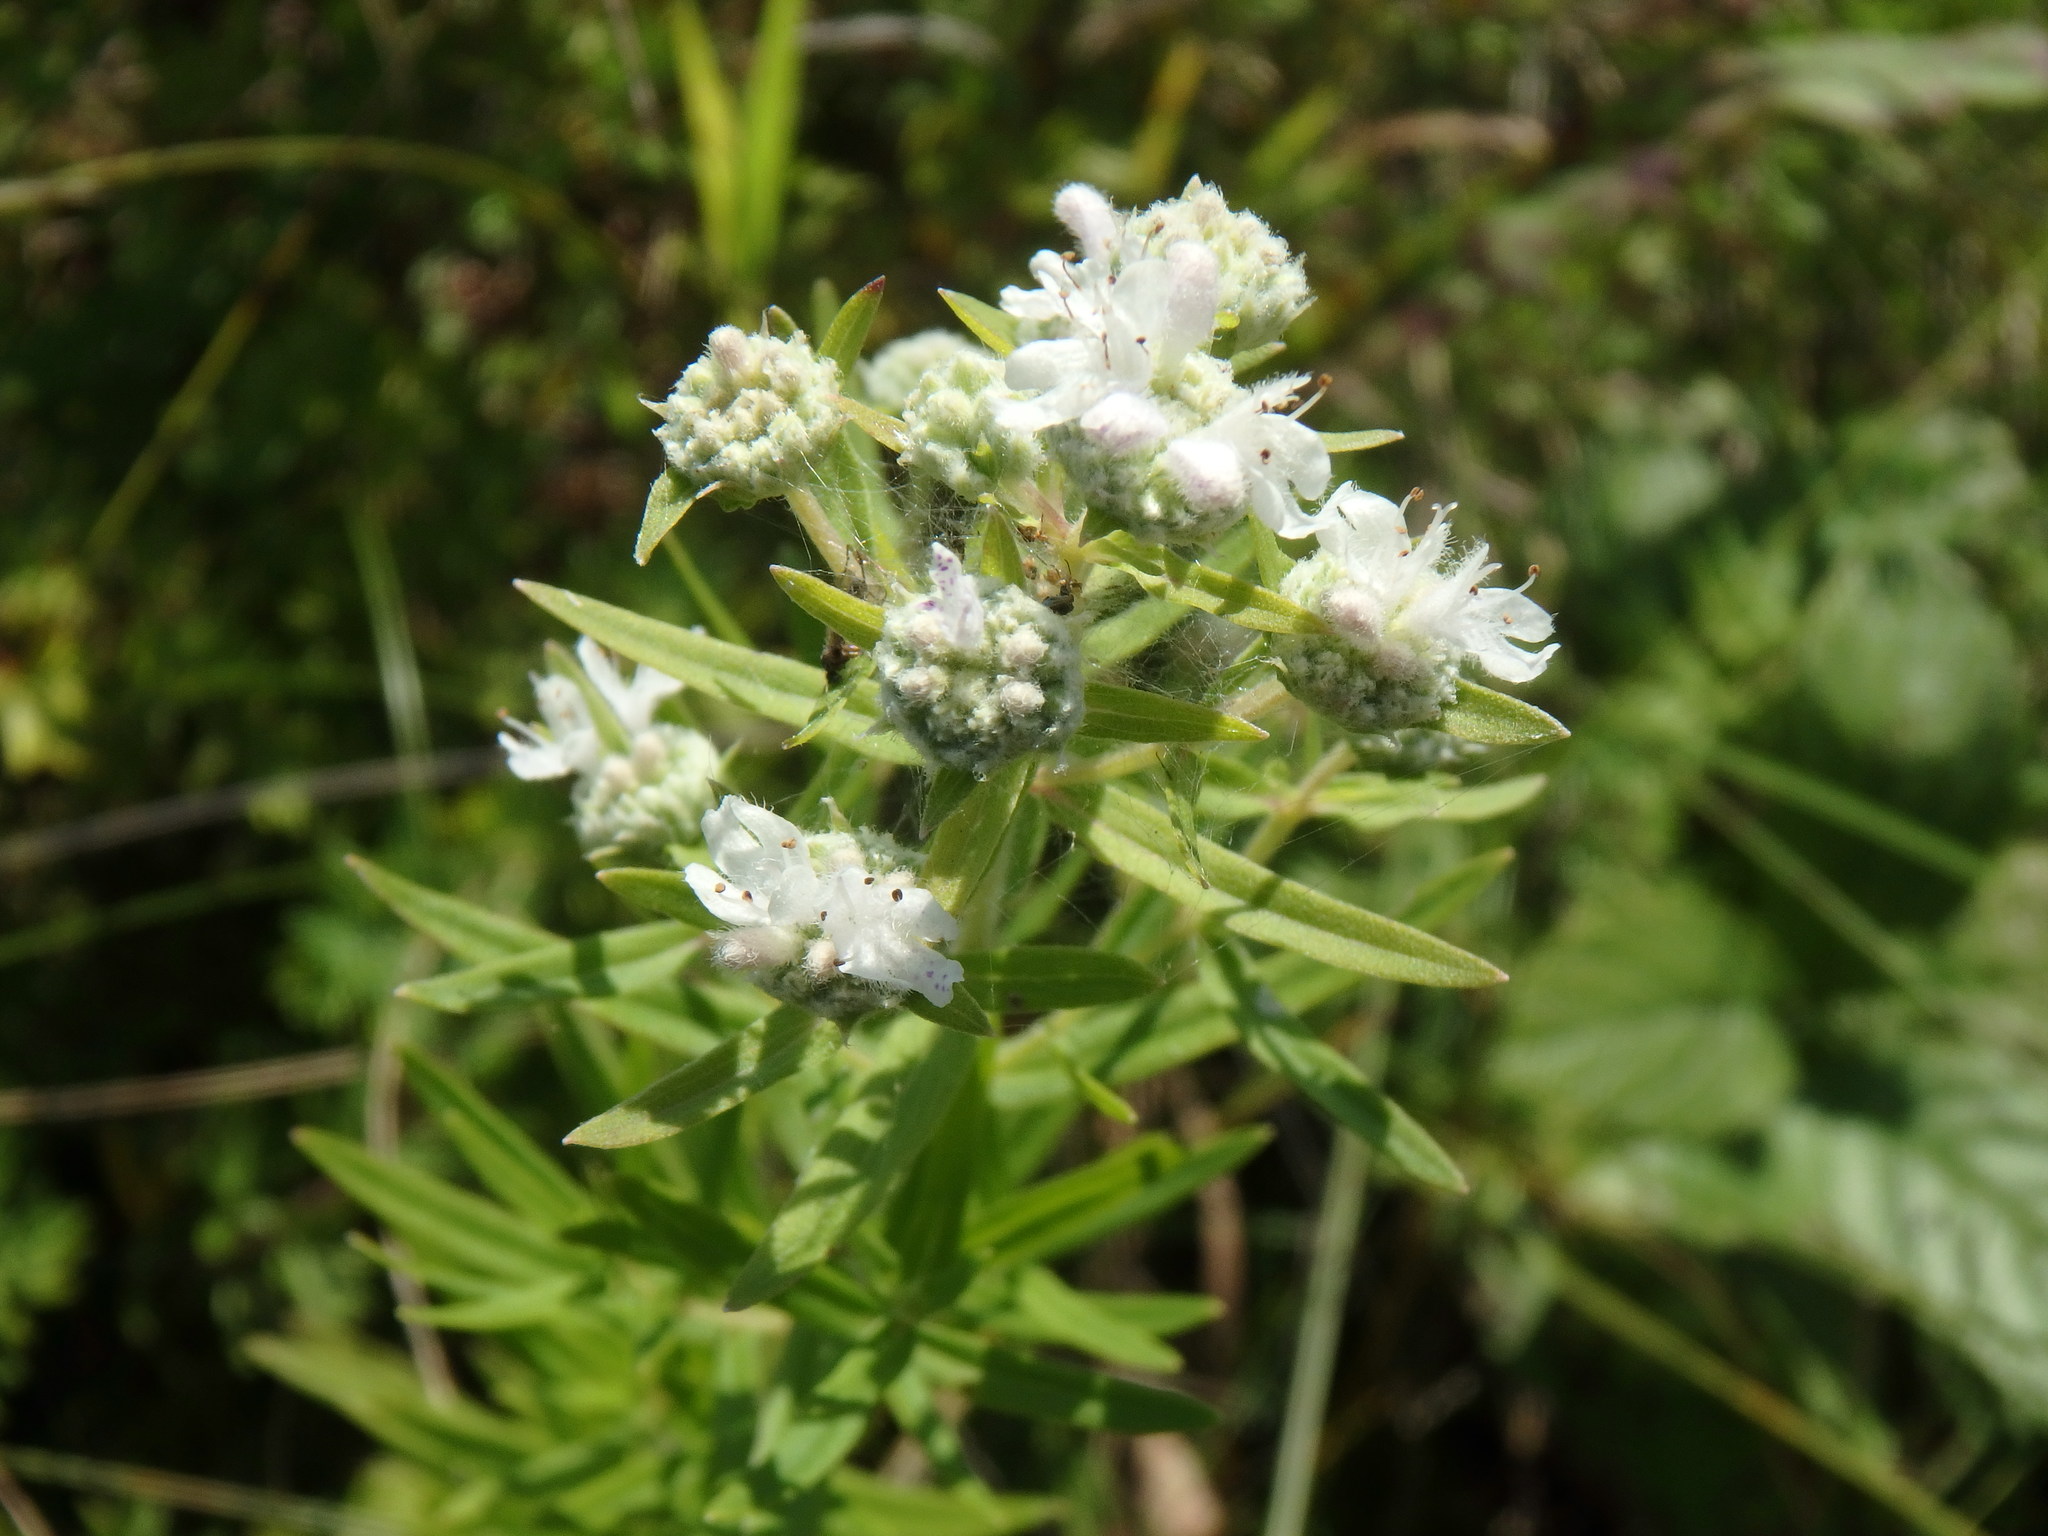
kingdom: Plantae
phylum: Tracheophyta
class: Magnoliopsida
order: Lamiales
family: Lamiaceae
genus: Pycnanthemum
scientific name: Pycnanthemum virginianum
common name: Virginia mountain-mint
